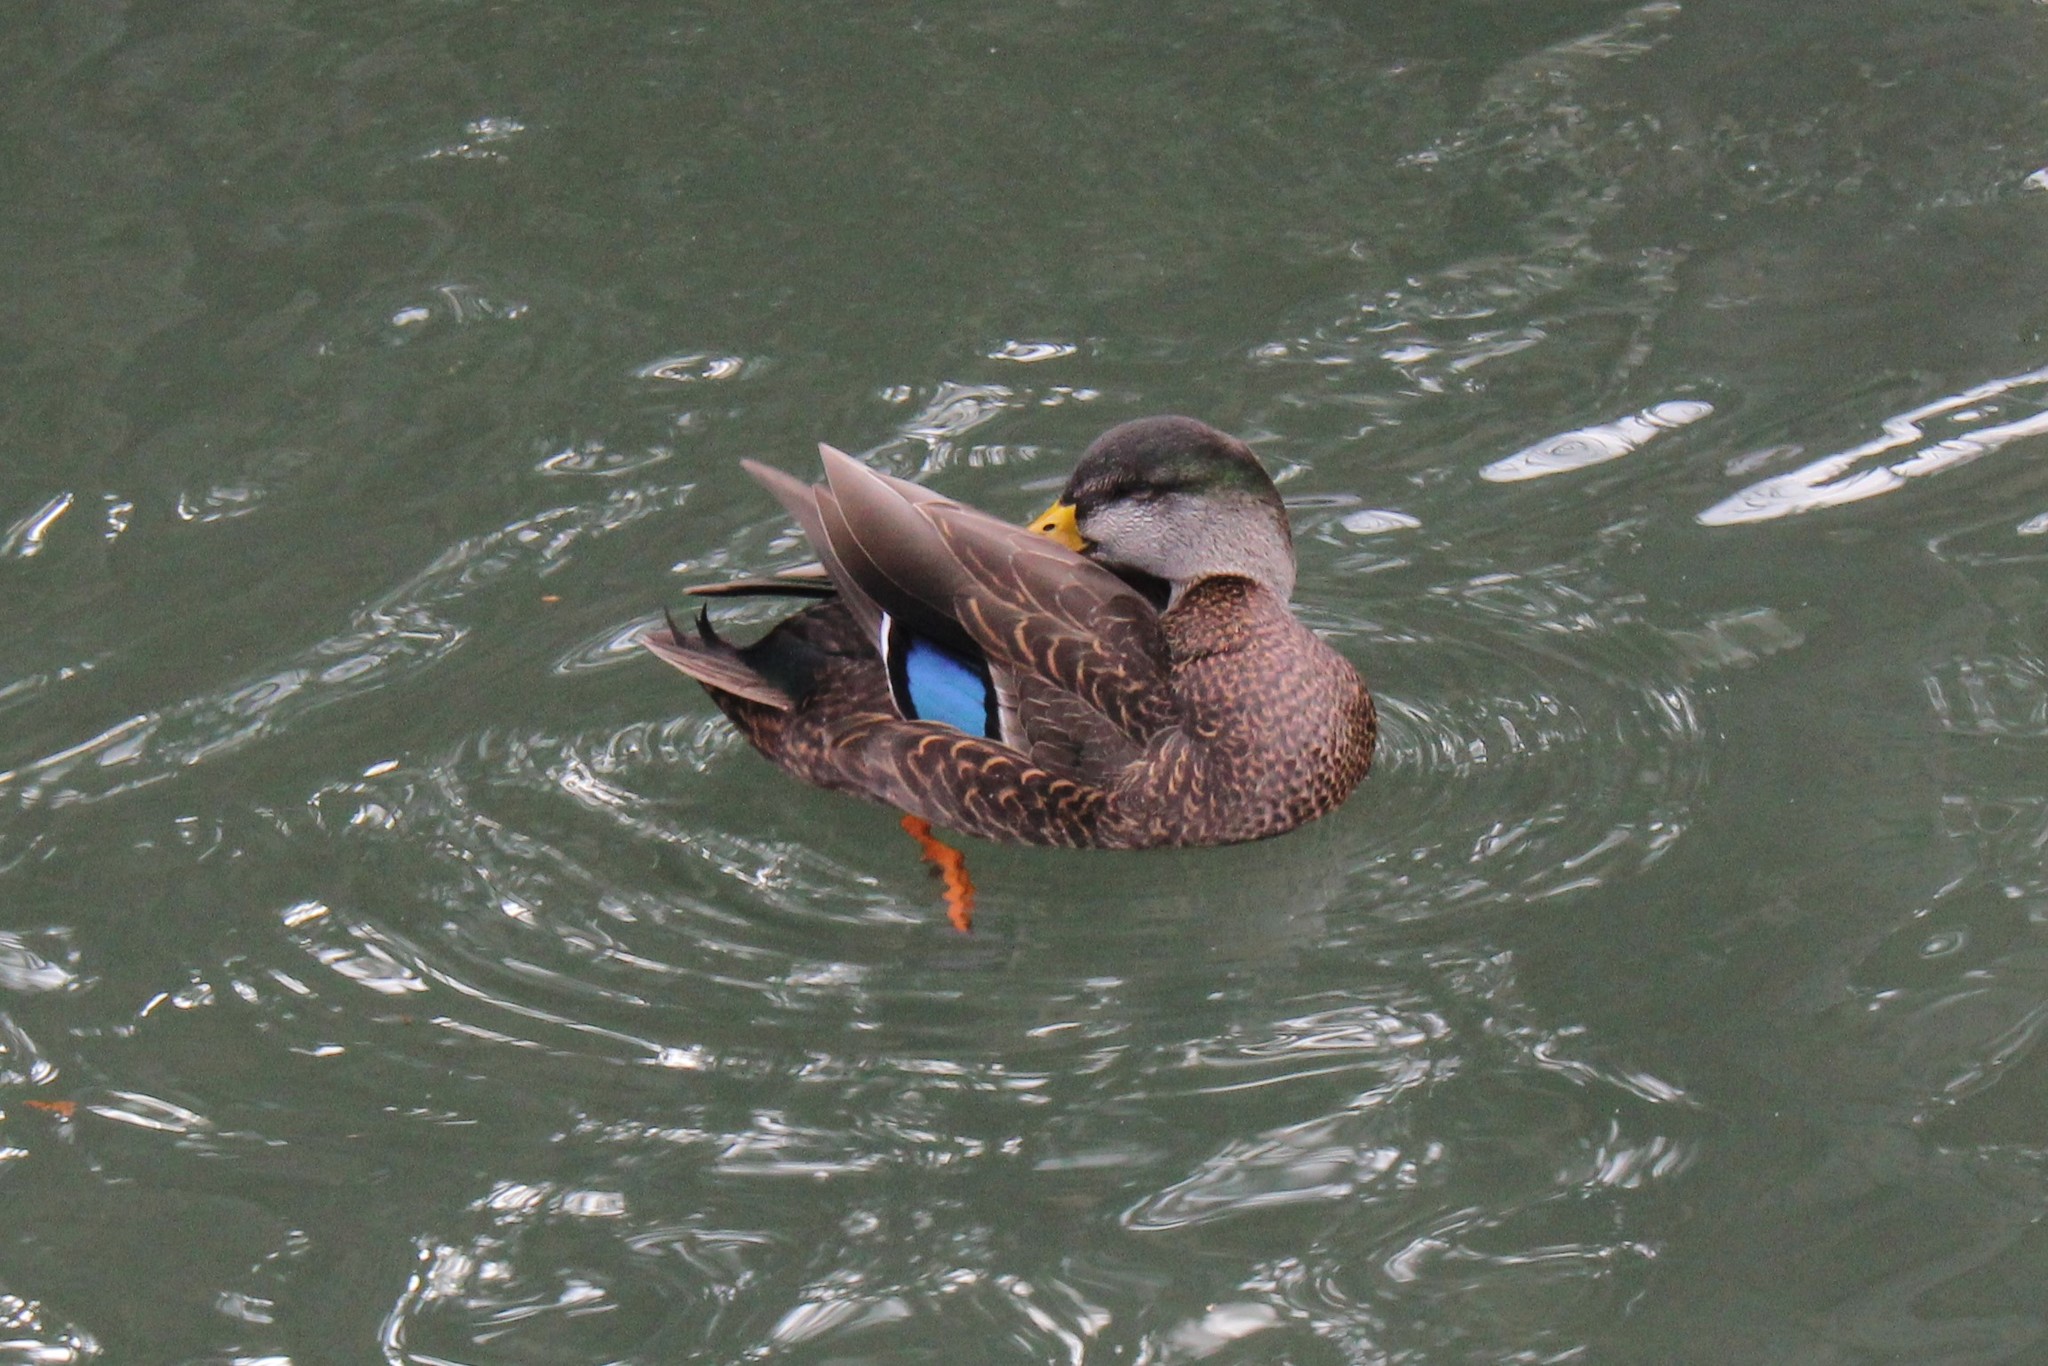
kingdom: Animalia
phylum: Chordata
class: Aves
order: Anseriformes
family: Anatidae
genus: Anas
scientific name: Anas
